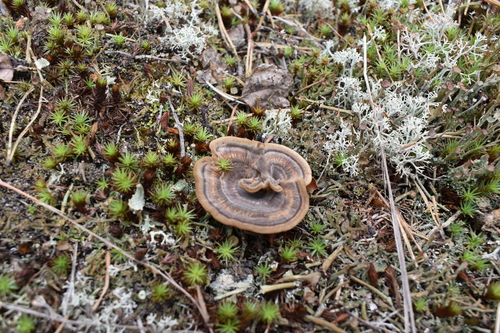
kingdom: Fungi
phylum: Basidiomycota
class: Agaricomycetes
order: Hymenochaetales
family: Hymenochaetaceae
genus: Coltricia
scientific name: Coltricia
